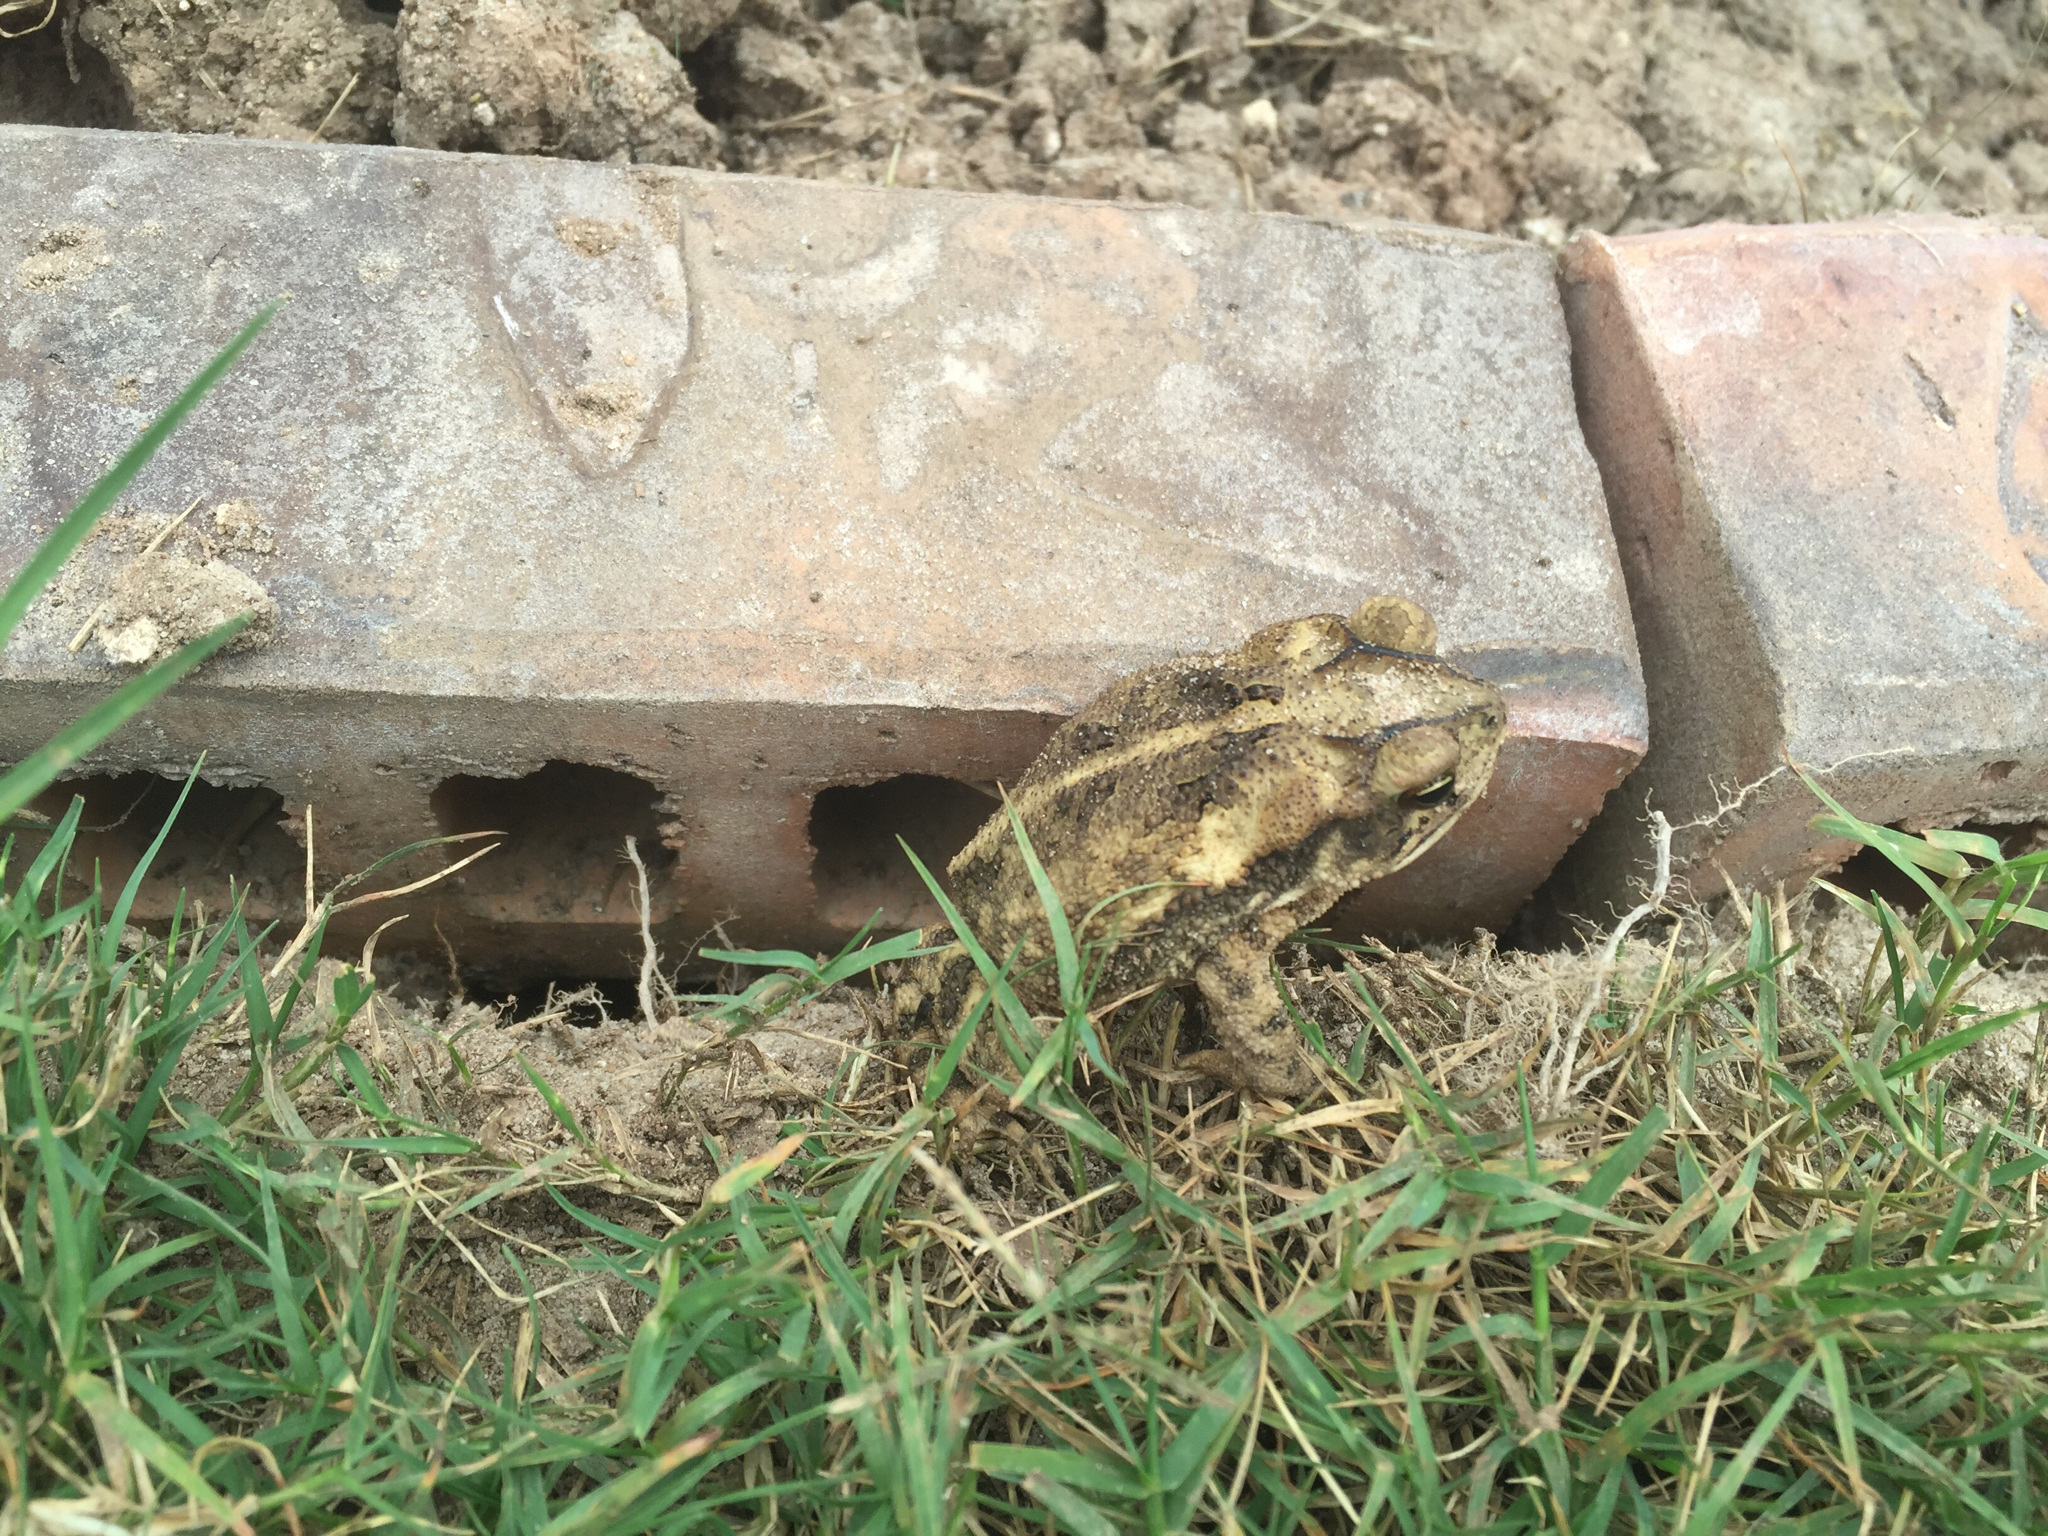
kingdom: Animalia
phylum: Chordata
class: Amphibia
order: Anura
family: Bufonidae
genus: Incilius
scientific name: Incilius nebulifer
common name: Gulf coast toad
